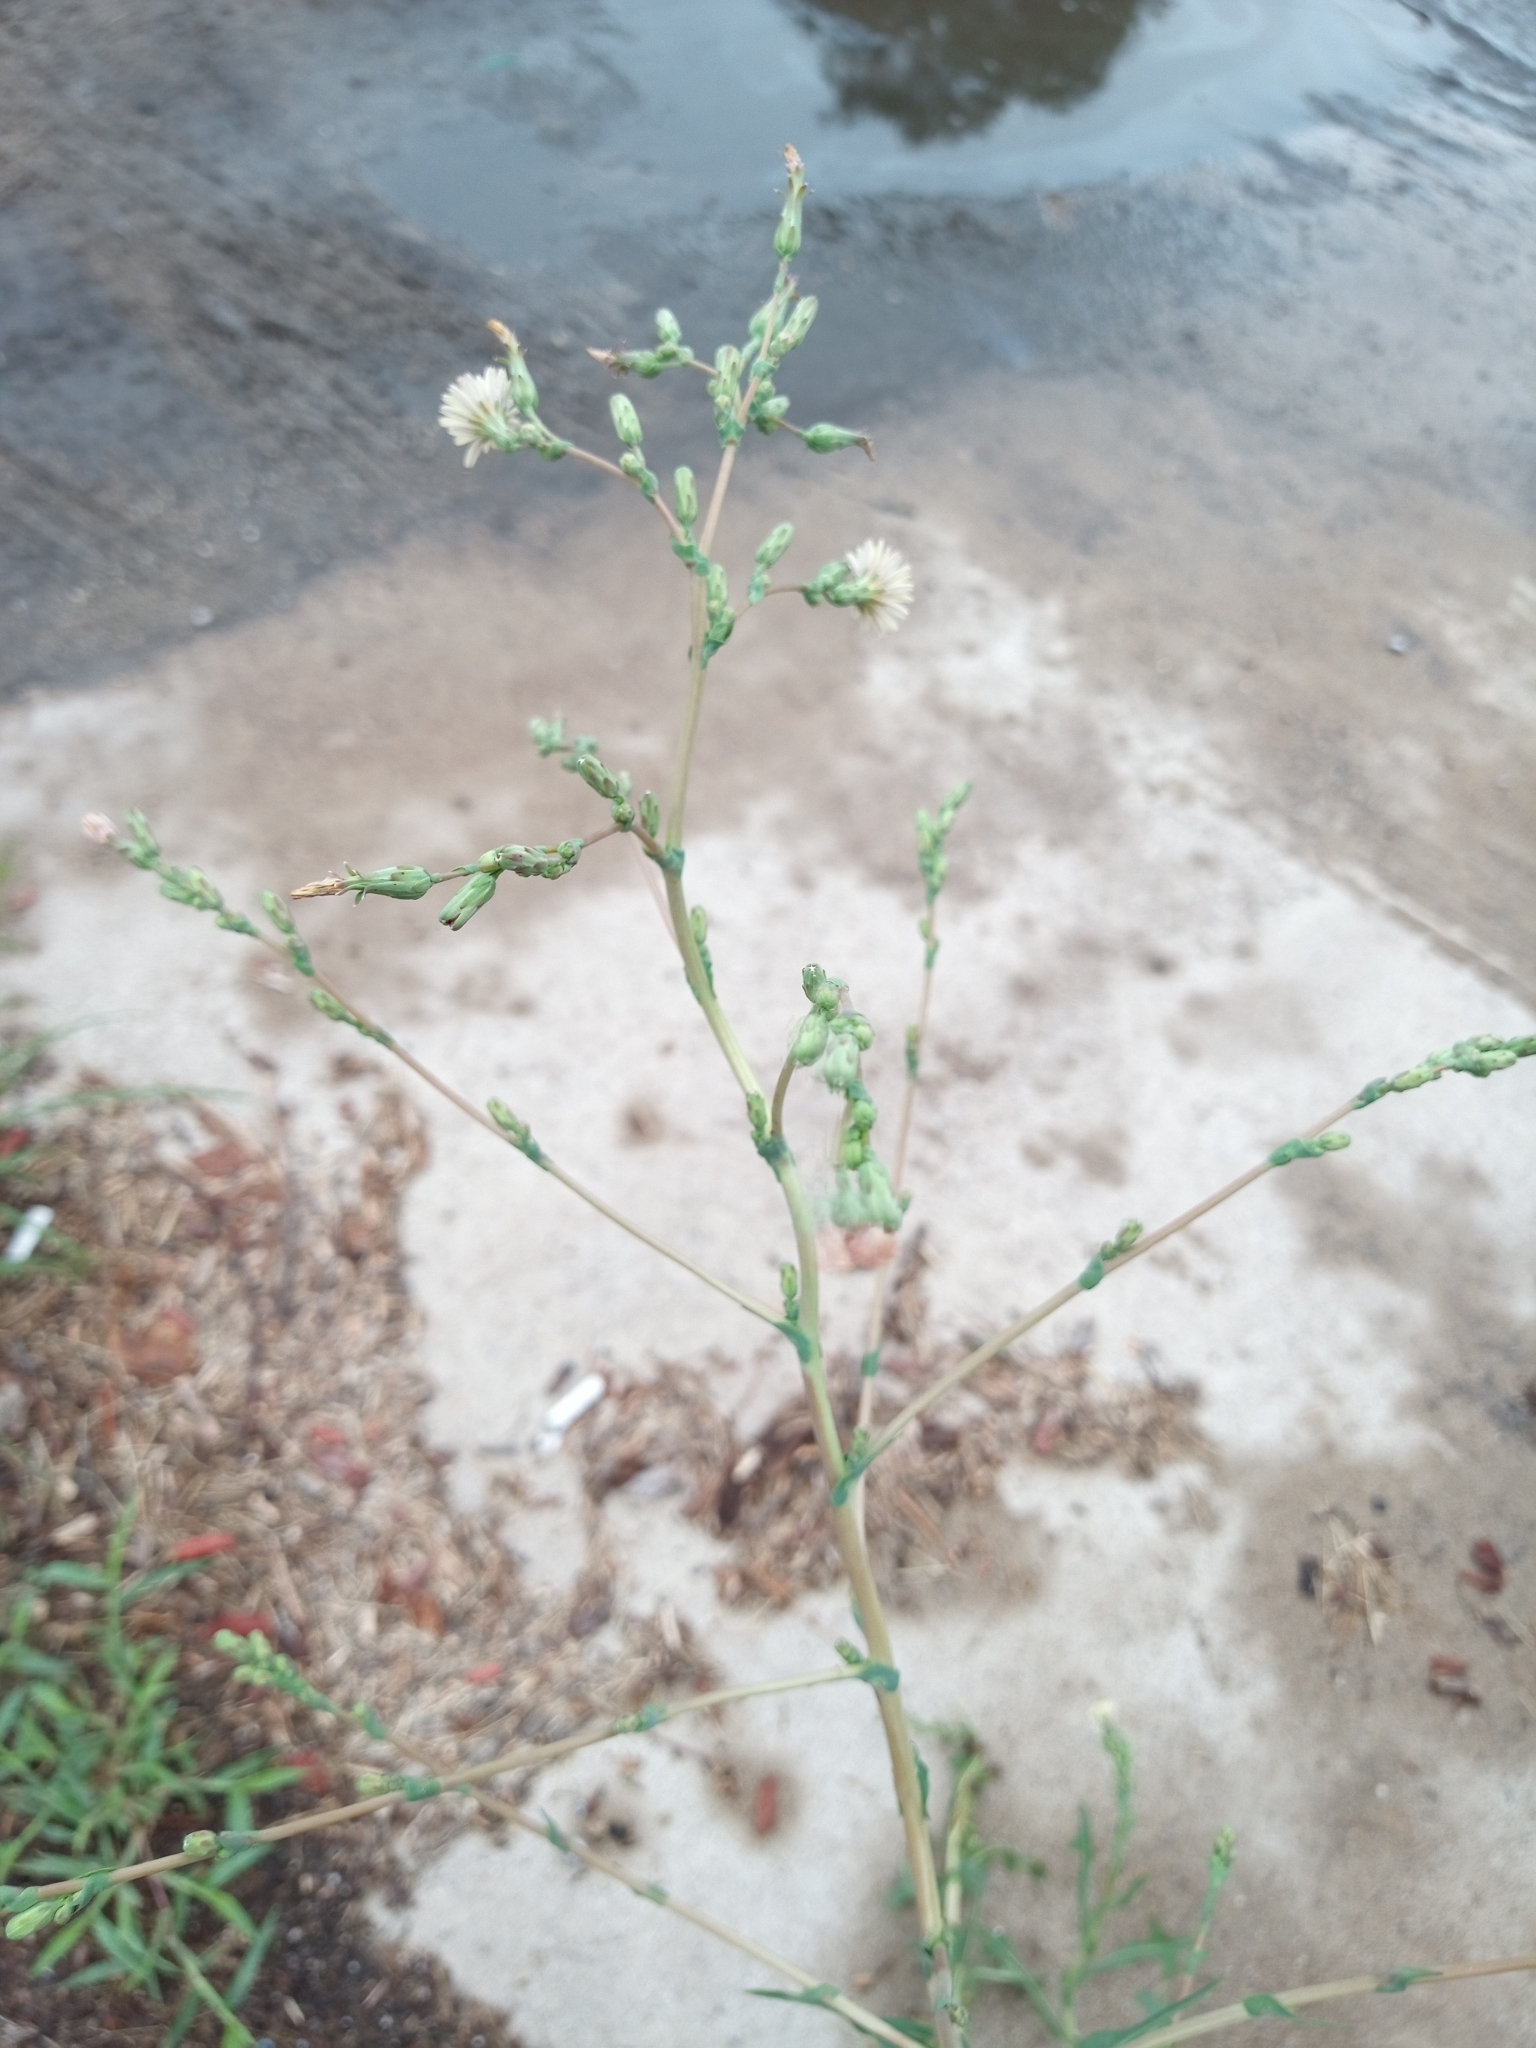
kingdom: Plantae
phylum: Tracheophyta
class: Magnoliopsida
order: Asterales
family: Asteraceae
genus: Lactuca
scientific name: Lactuca serriola
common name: Prickly lettuce
